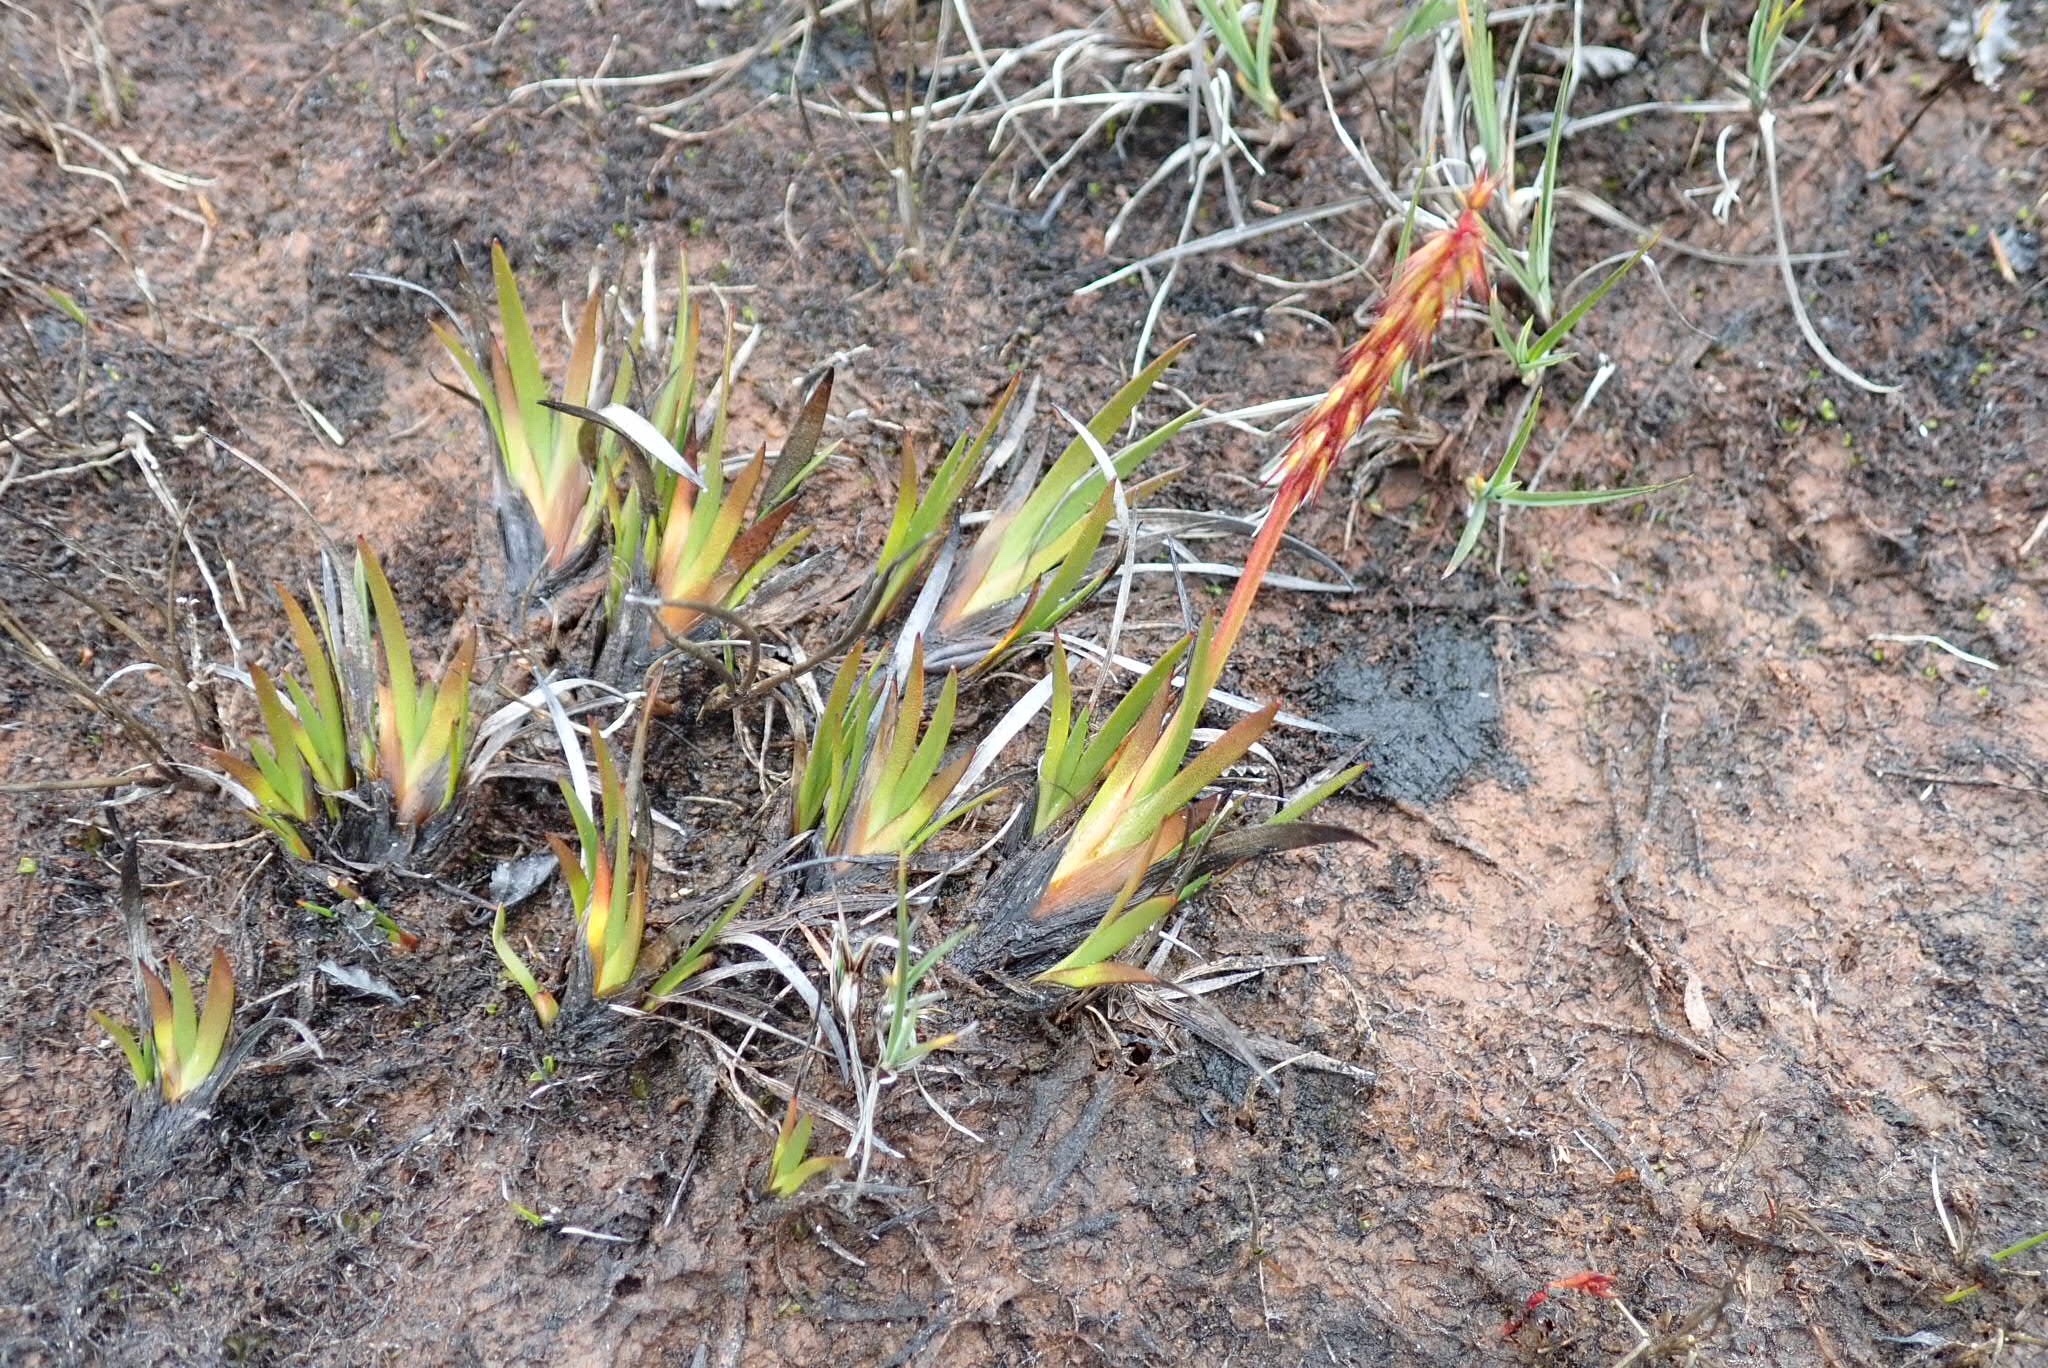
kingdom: Plantae
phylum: Tracheophyta
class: Liliopsida
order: Alismatales
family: Juncaginaceae
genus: Tetroncium
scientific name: Tetroncium magellanicum
